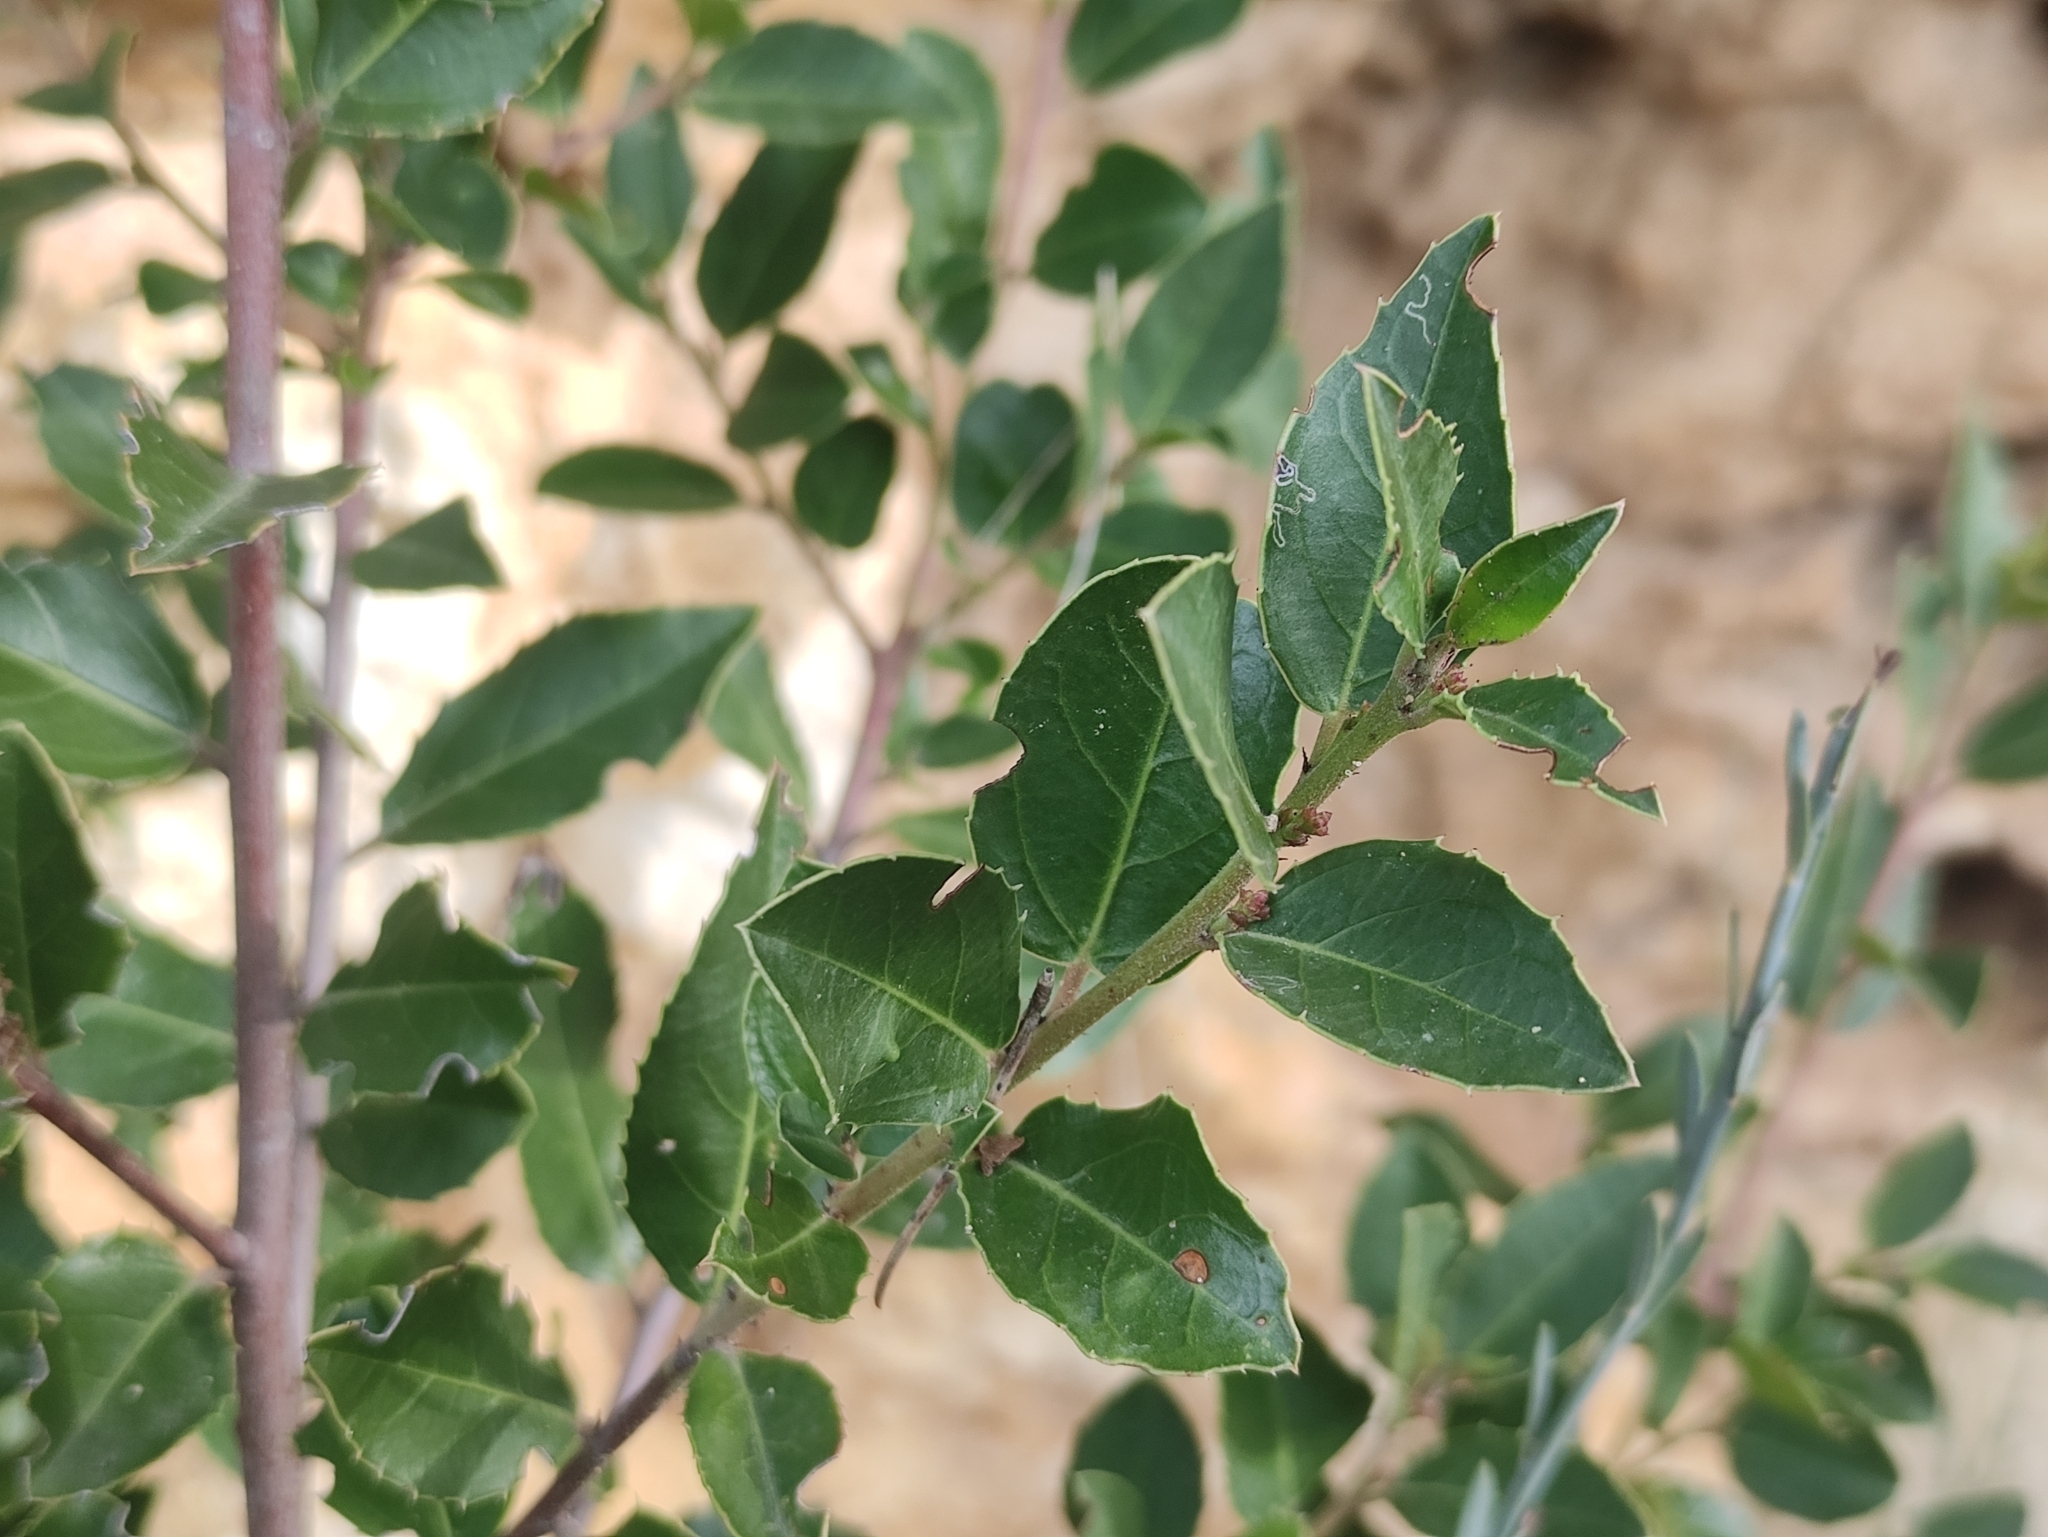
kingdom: Plantae
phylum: Tracheophyta
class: Magnoliopsida
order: Rosales
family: Rhamnaceae
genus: Rhamnus
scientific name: Rhamnus alaternus
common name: Mediterranean buckthorn
